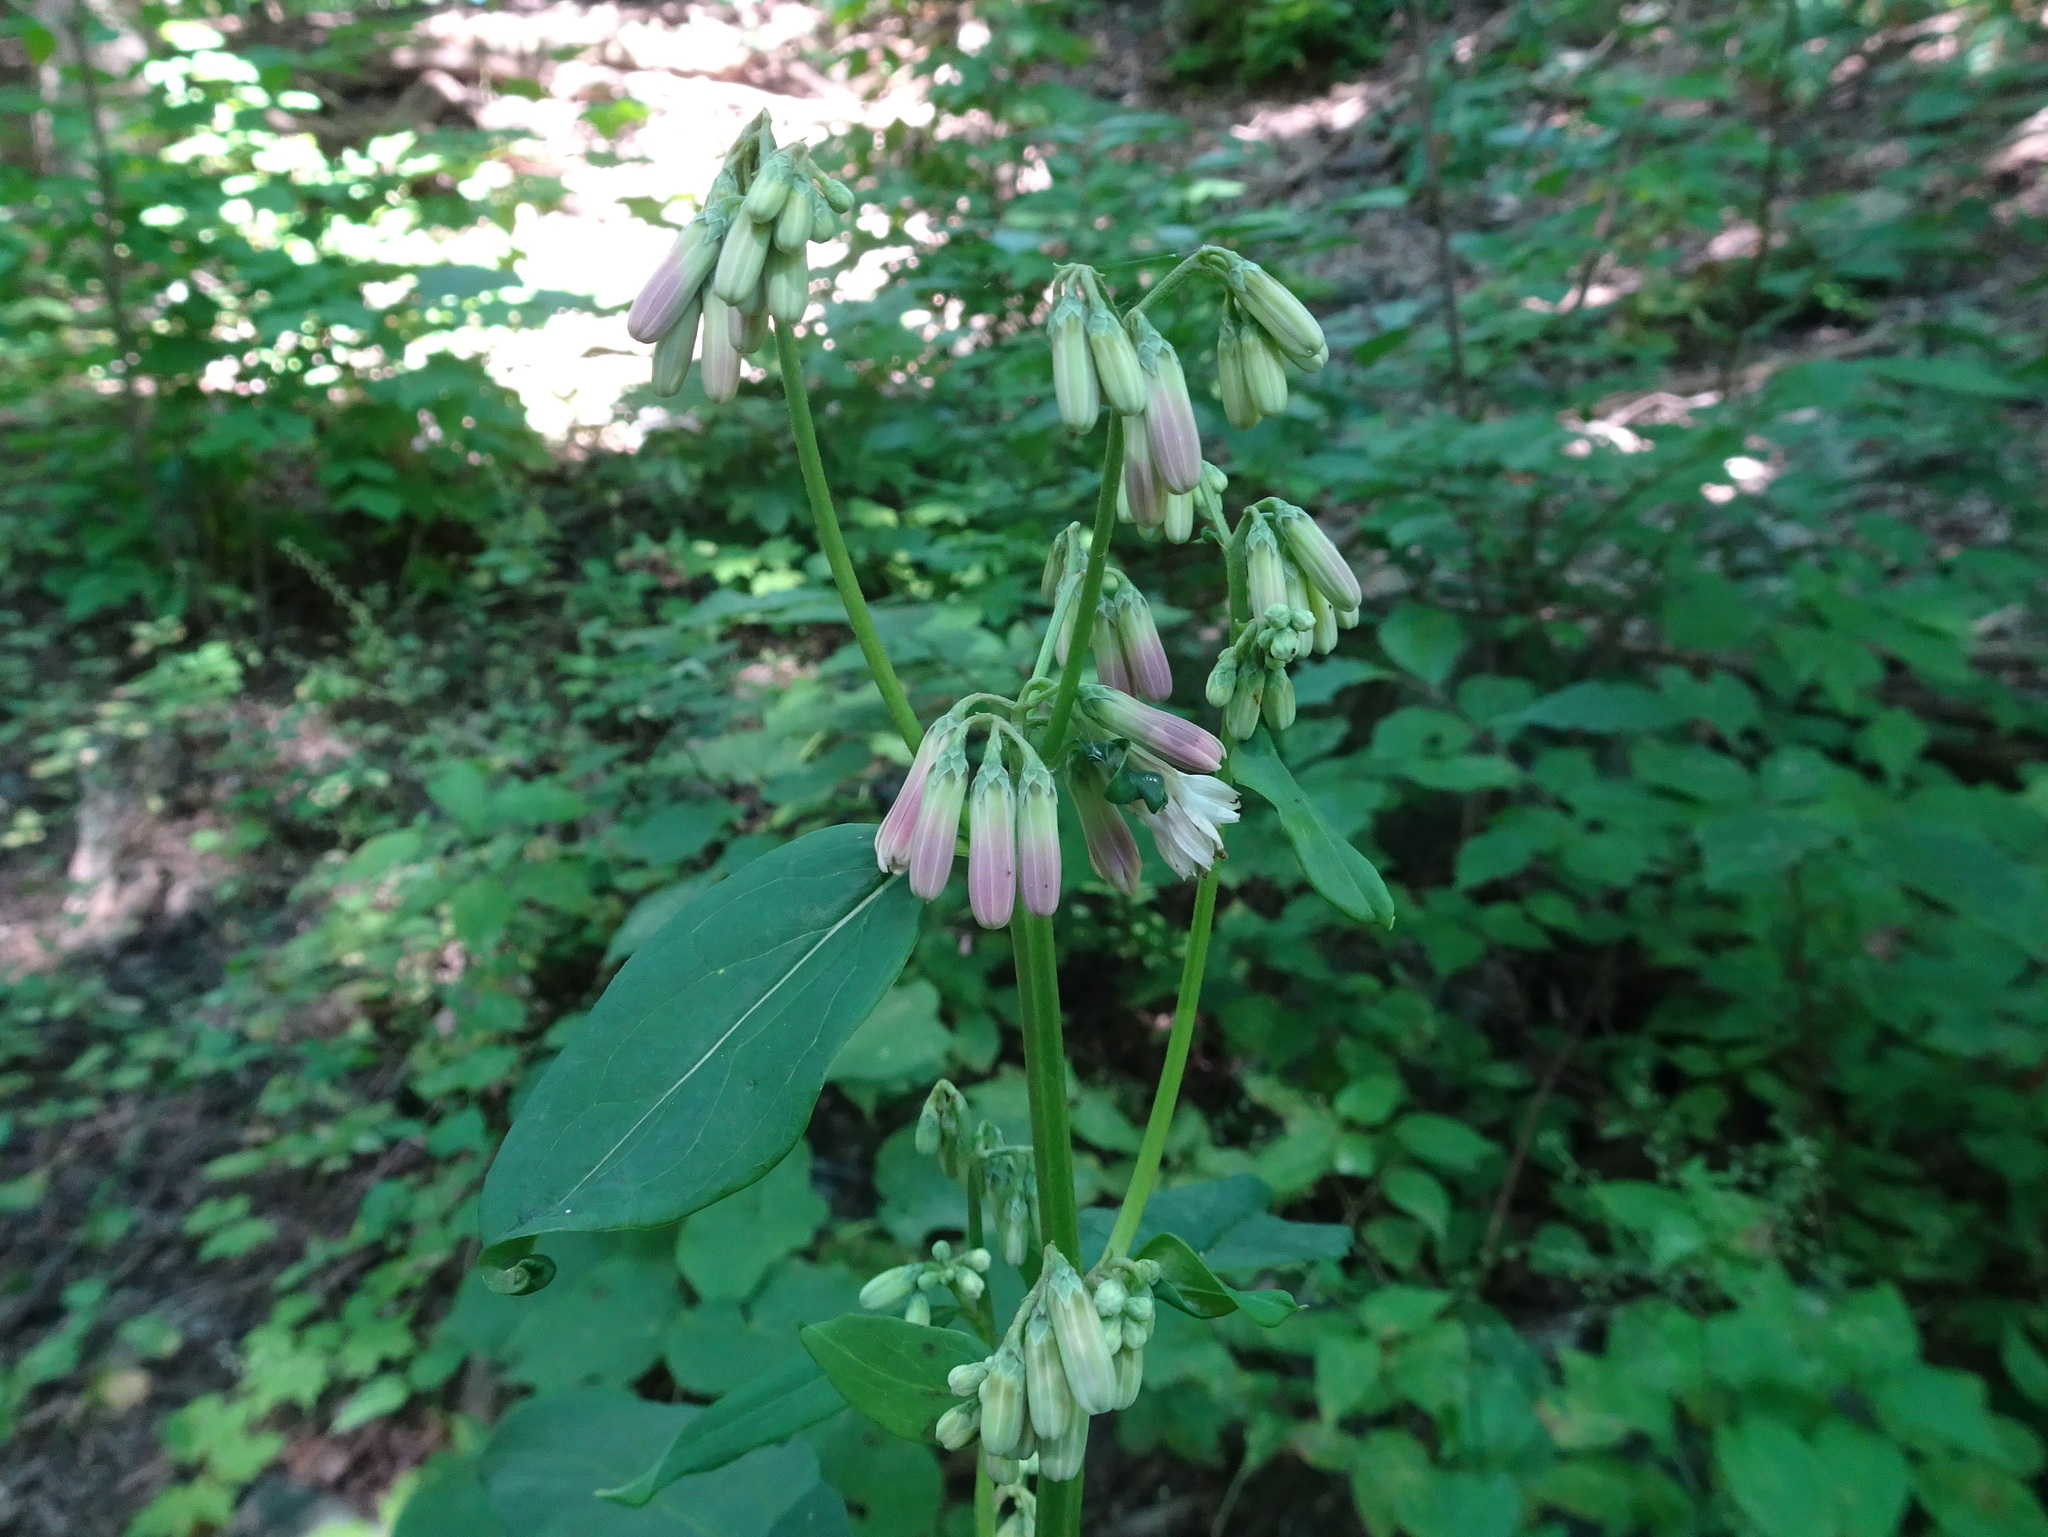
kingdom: Plantae
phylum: Tracheophyta
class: Magnoliopsida
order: Asterales
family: Asteraceae
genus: Nabalus
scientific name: Nabalus albus
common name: White rattlesnakeroot
